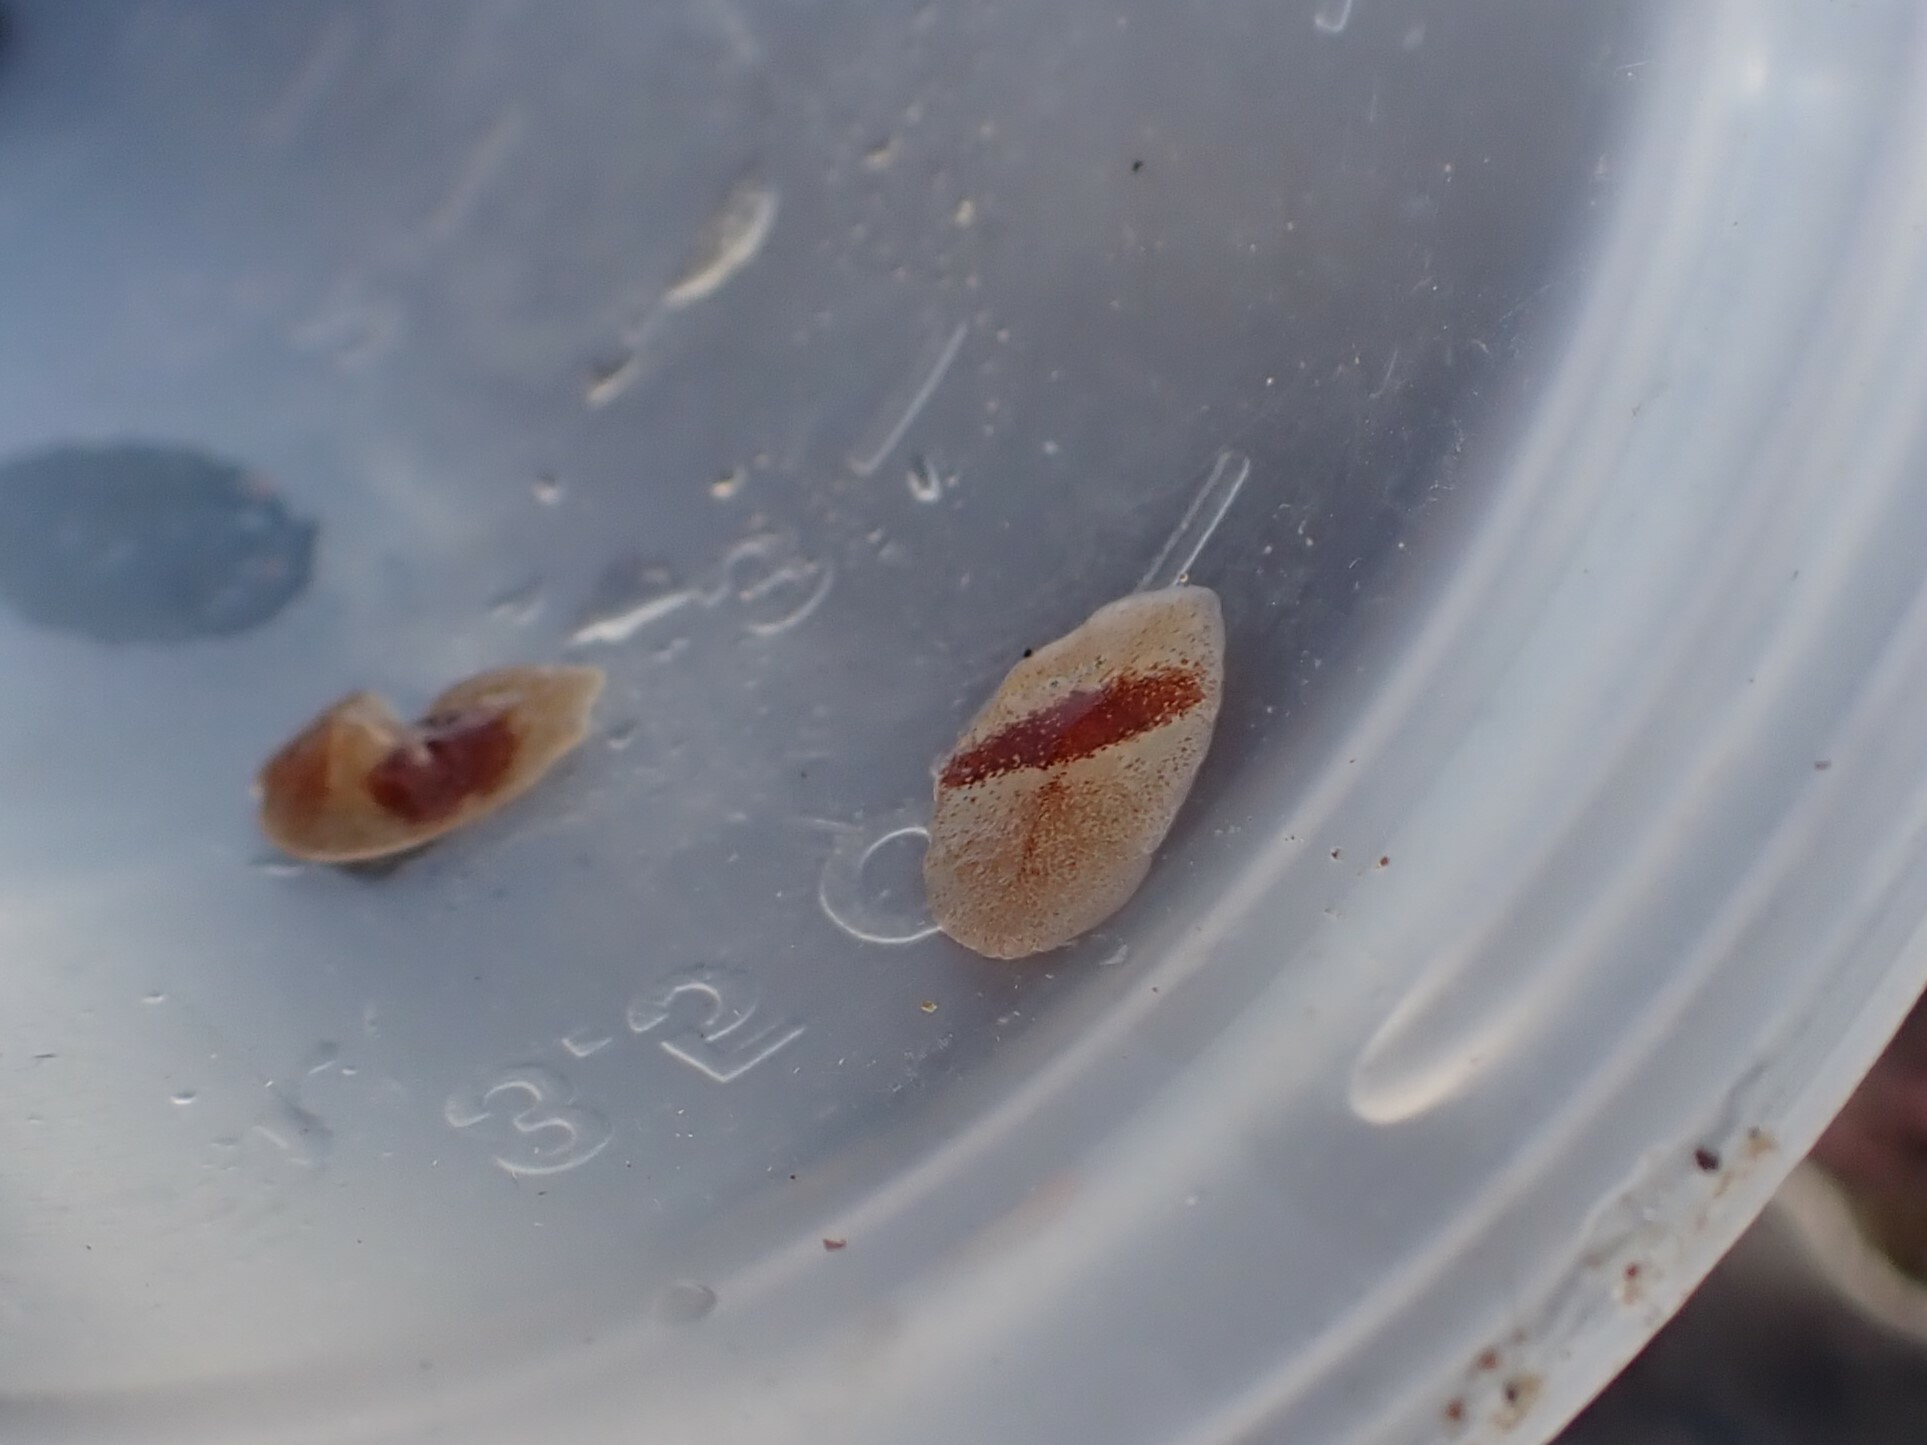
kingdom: Animalia
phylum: Platyhelminthes
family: Notocomplanidae
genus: Notocomplana
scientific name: Notocomplana sanguinea
